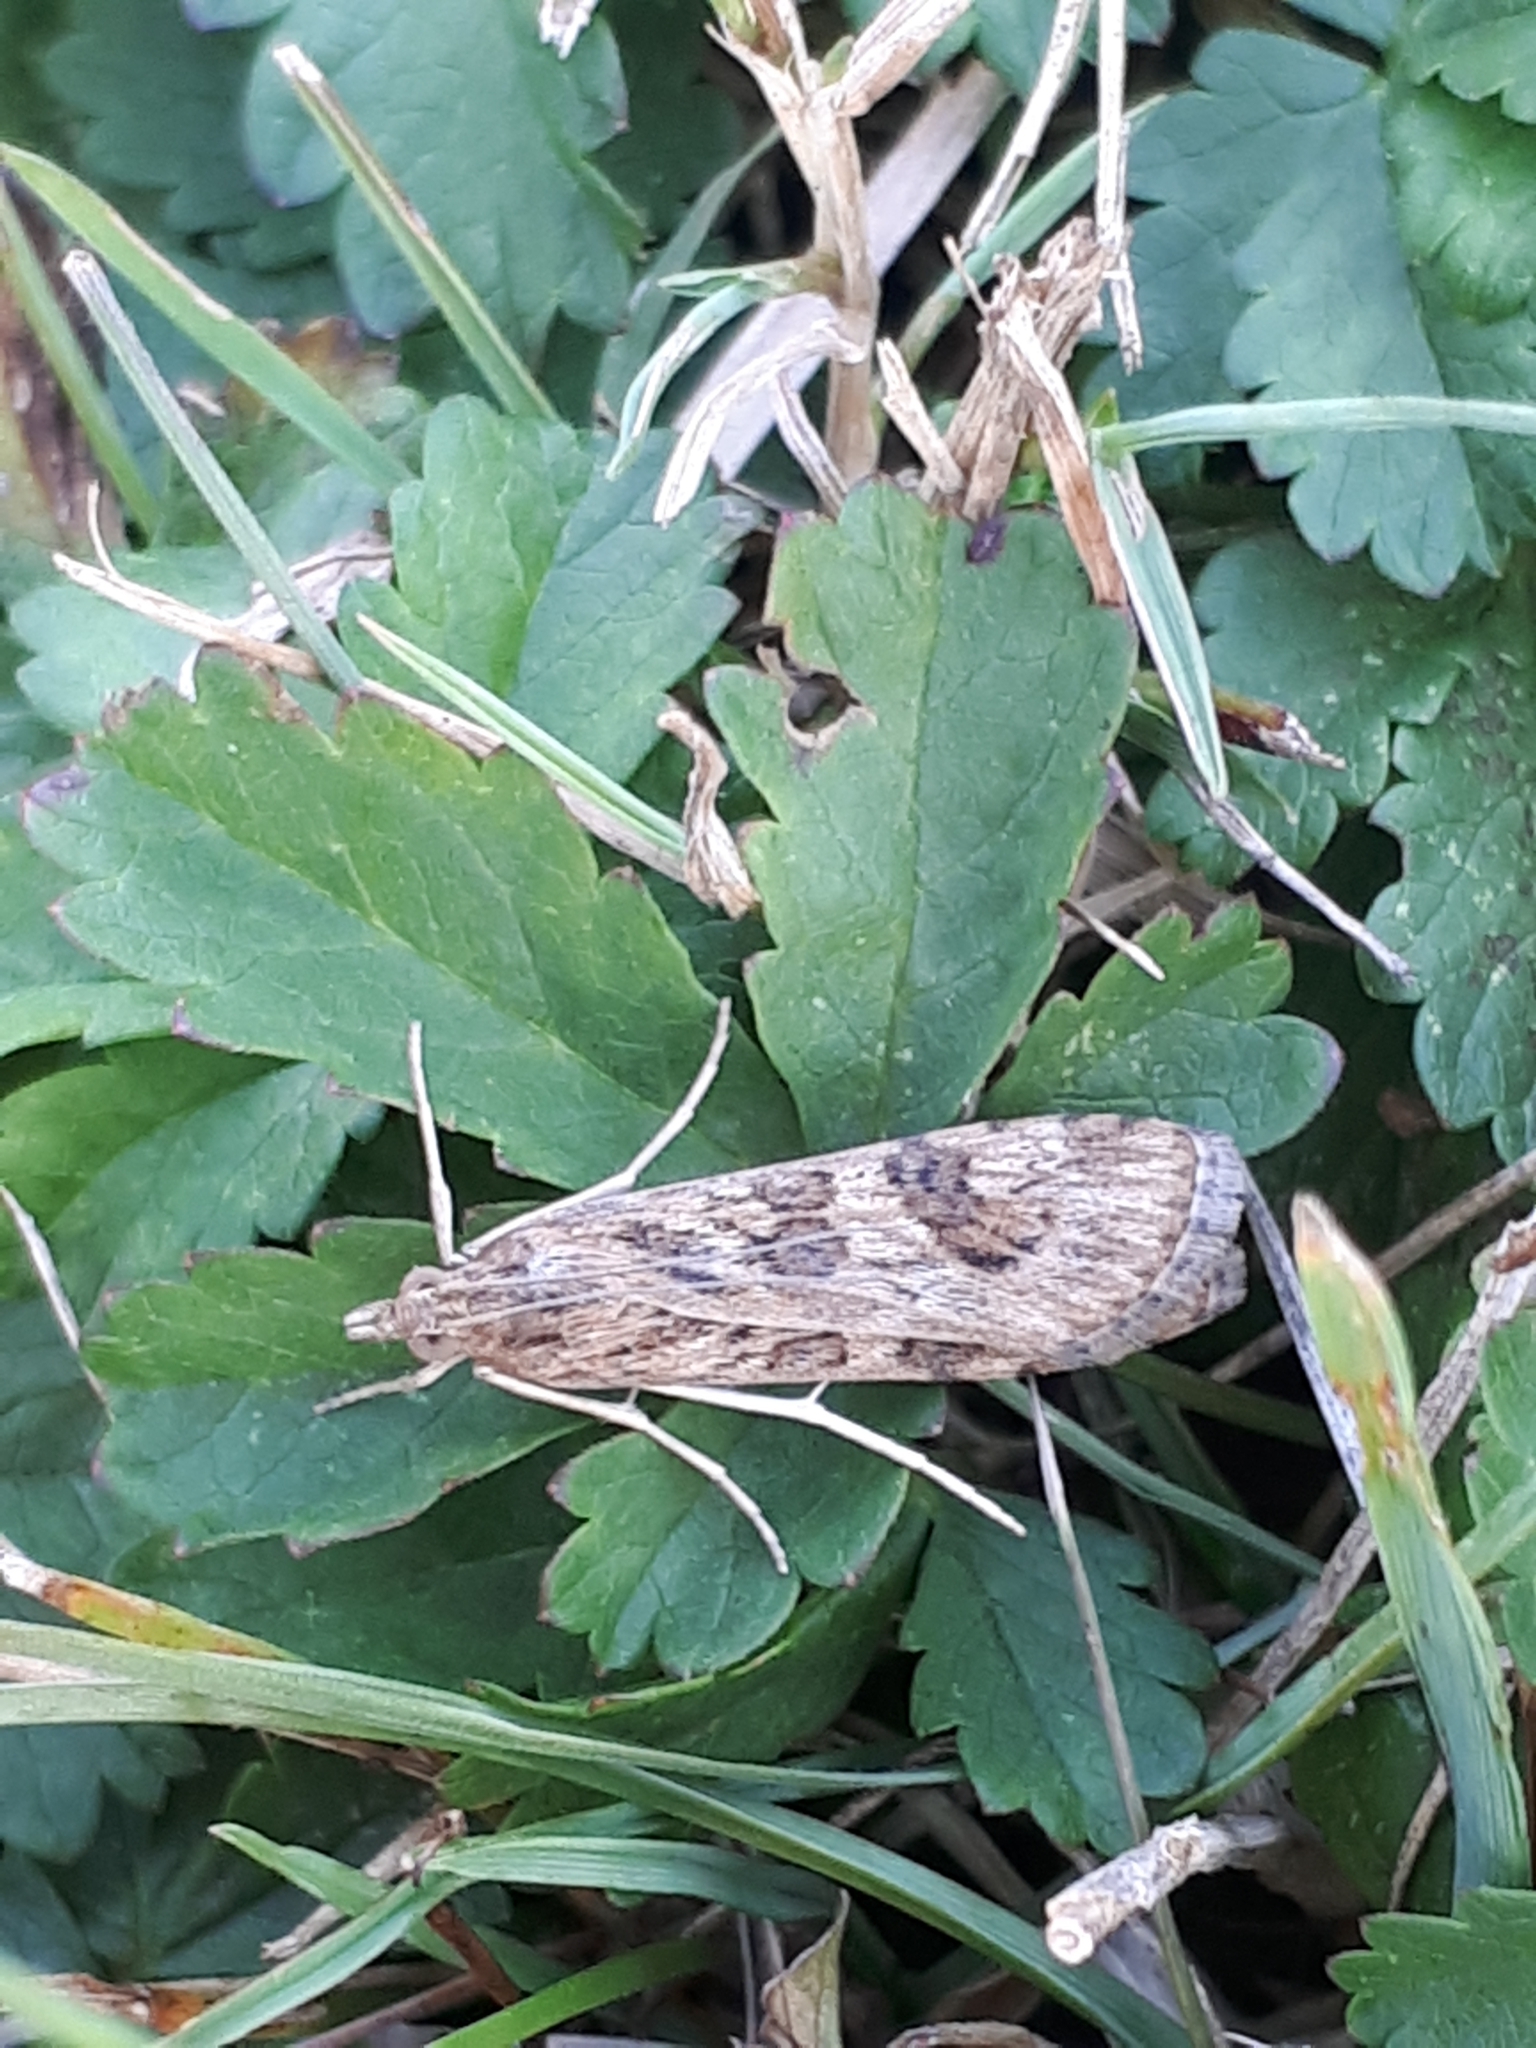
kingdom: Animalia
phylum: Arthropoda
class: Insecta
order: Lepidoptera
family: Crambidae
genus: Nomophila
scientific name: Nomophila noctuella
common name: Rush veneer
